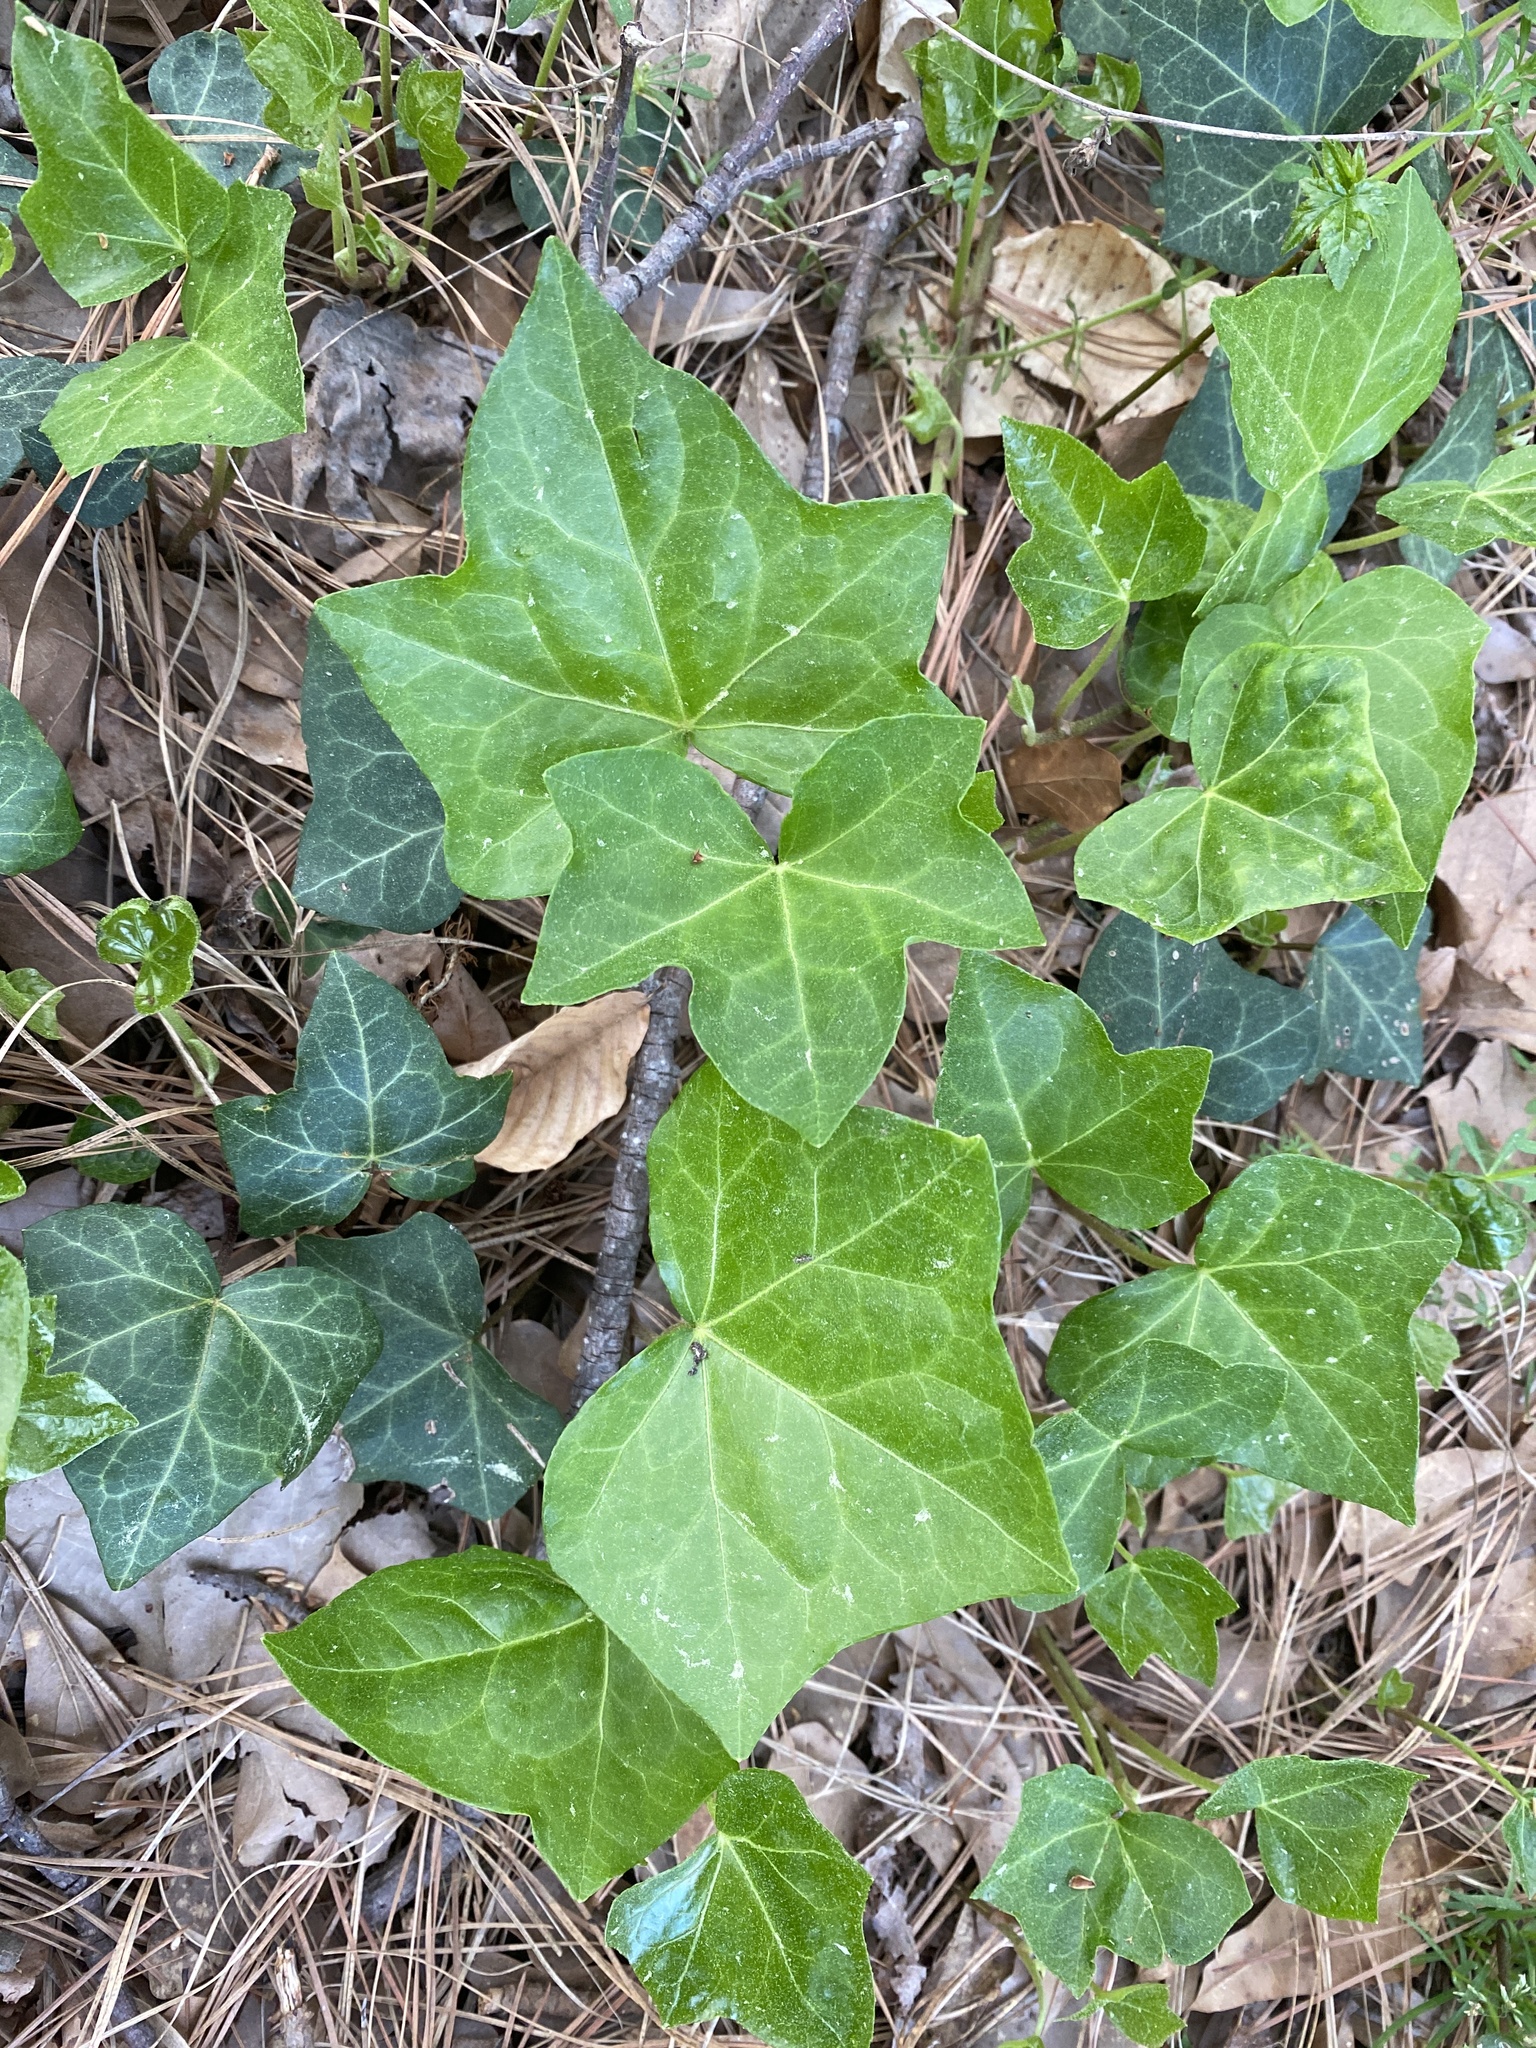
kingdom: Plantae
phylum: Tracheophyta
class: Magnoliopsida
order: Apiales
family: Araliaceae
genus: Hedera
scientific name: Hedera helix
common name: Ivy
